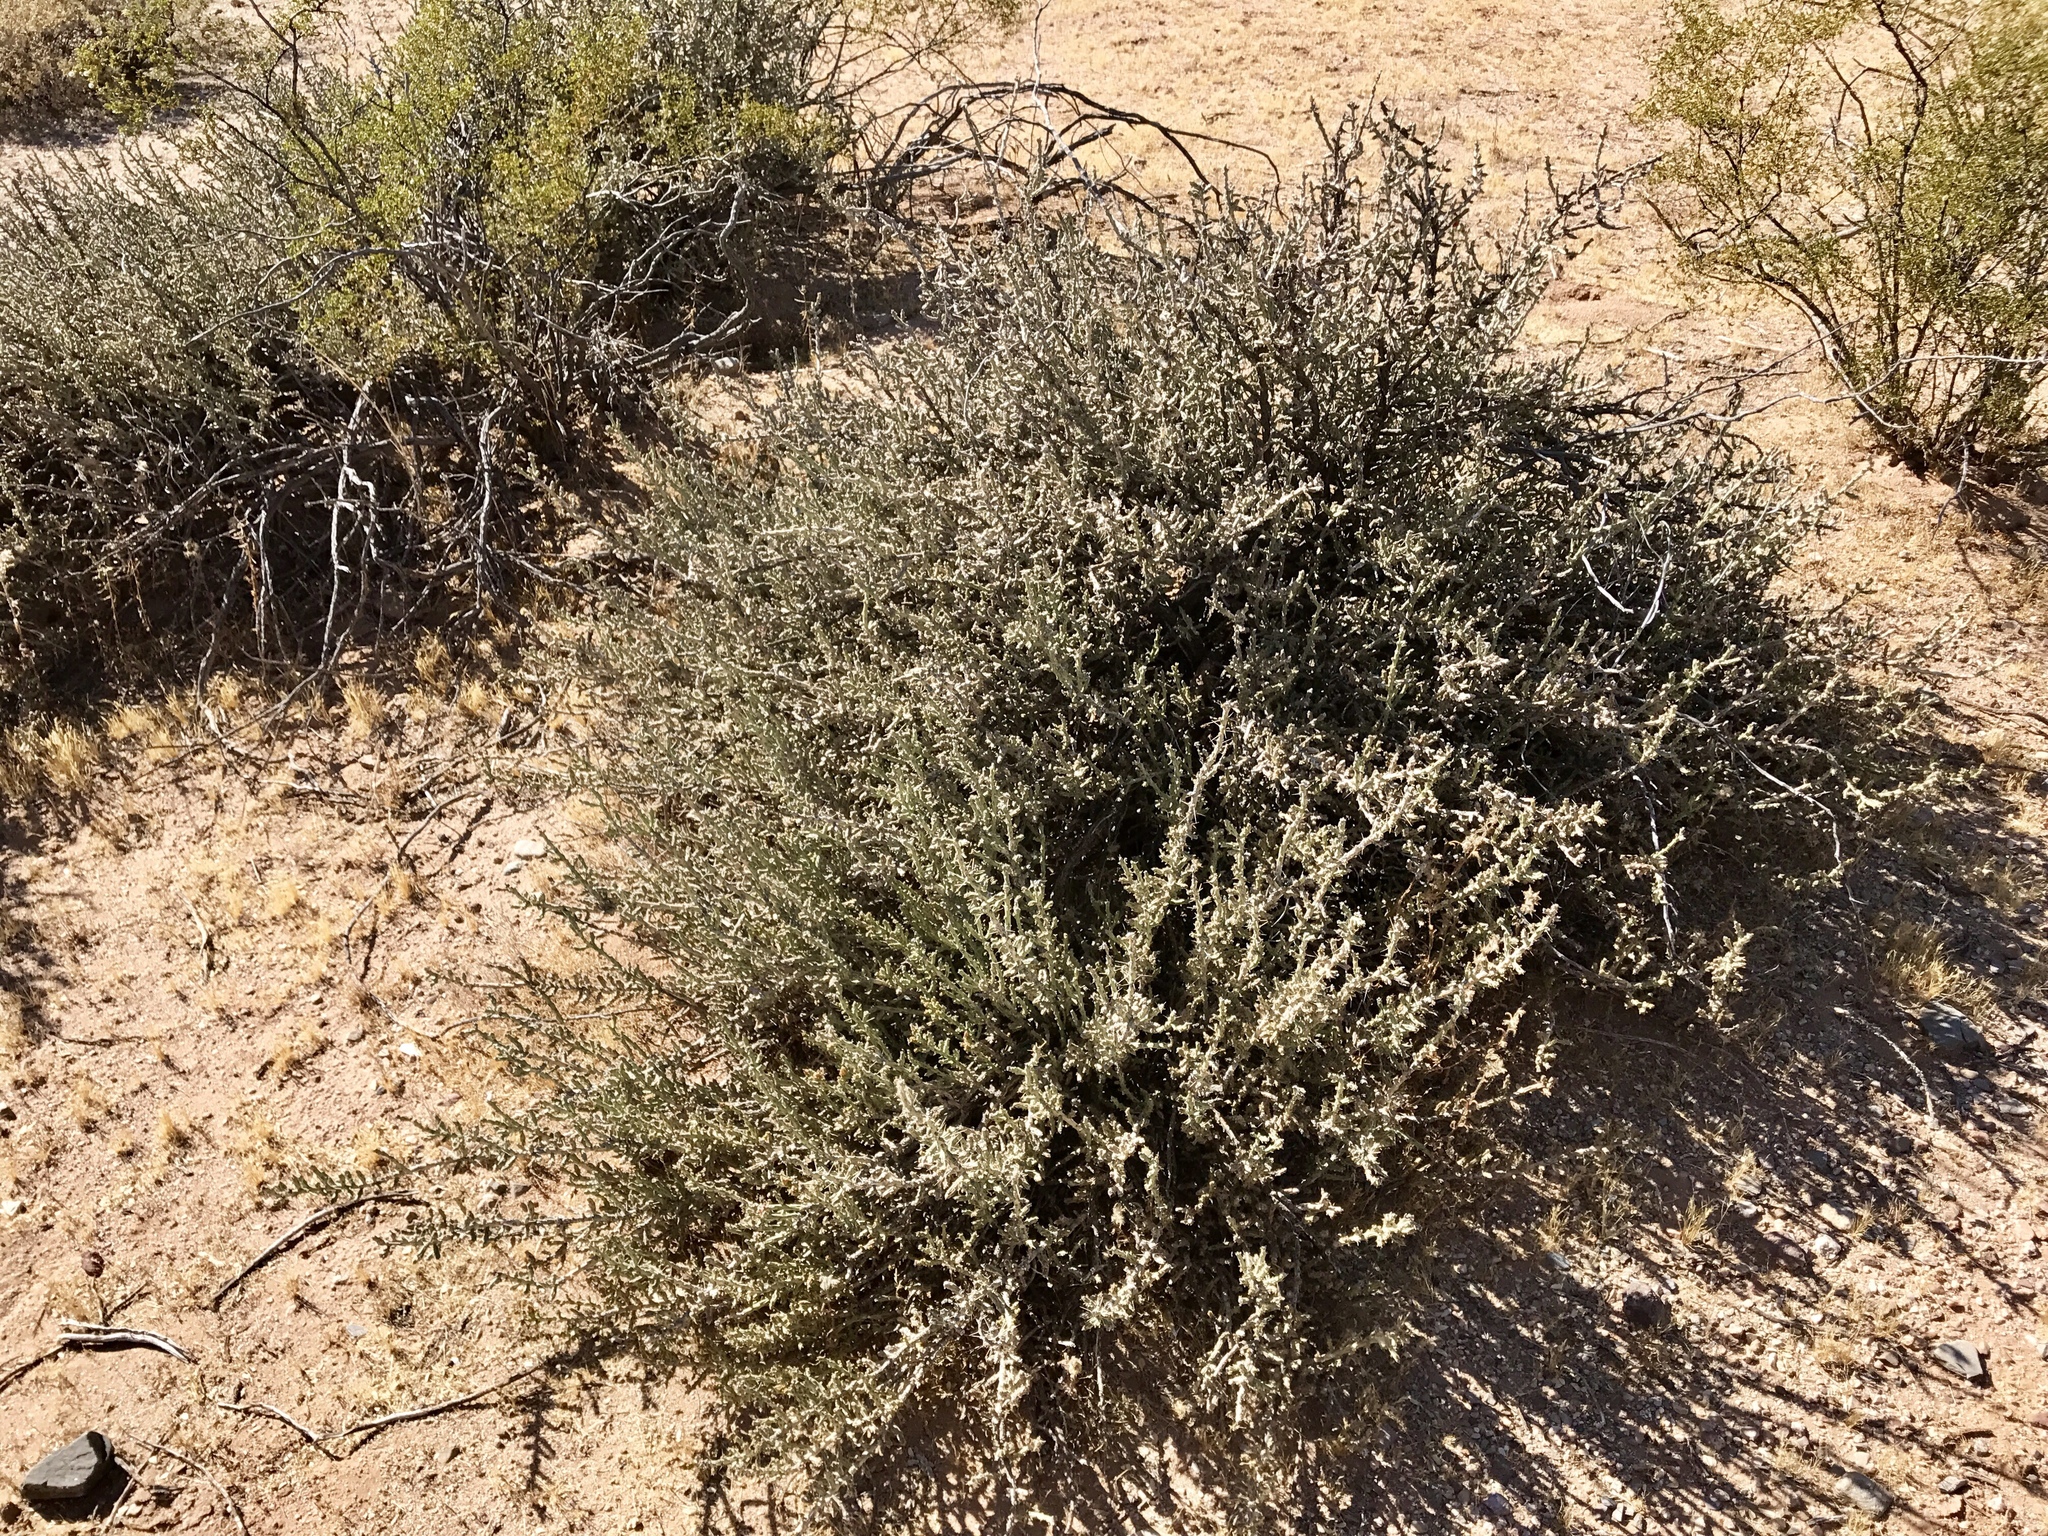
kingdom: Plantae
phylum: Tracheophyta
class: Magnoliopsida
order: Caryophyllales
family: Cactaceae
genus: Cylindropuntia
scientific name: Cylindropuntia leptocaulis
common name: Christmas cactus
